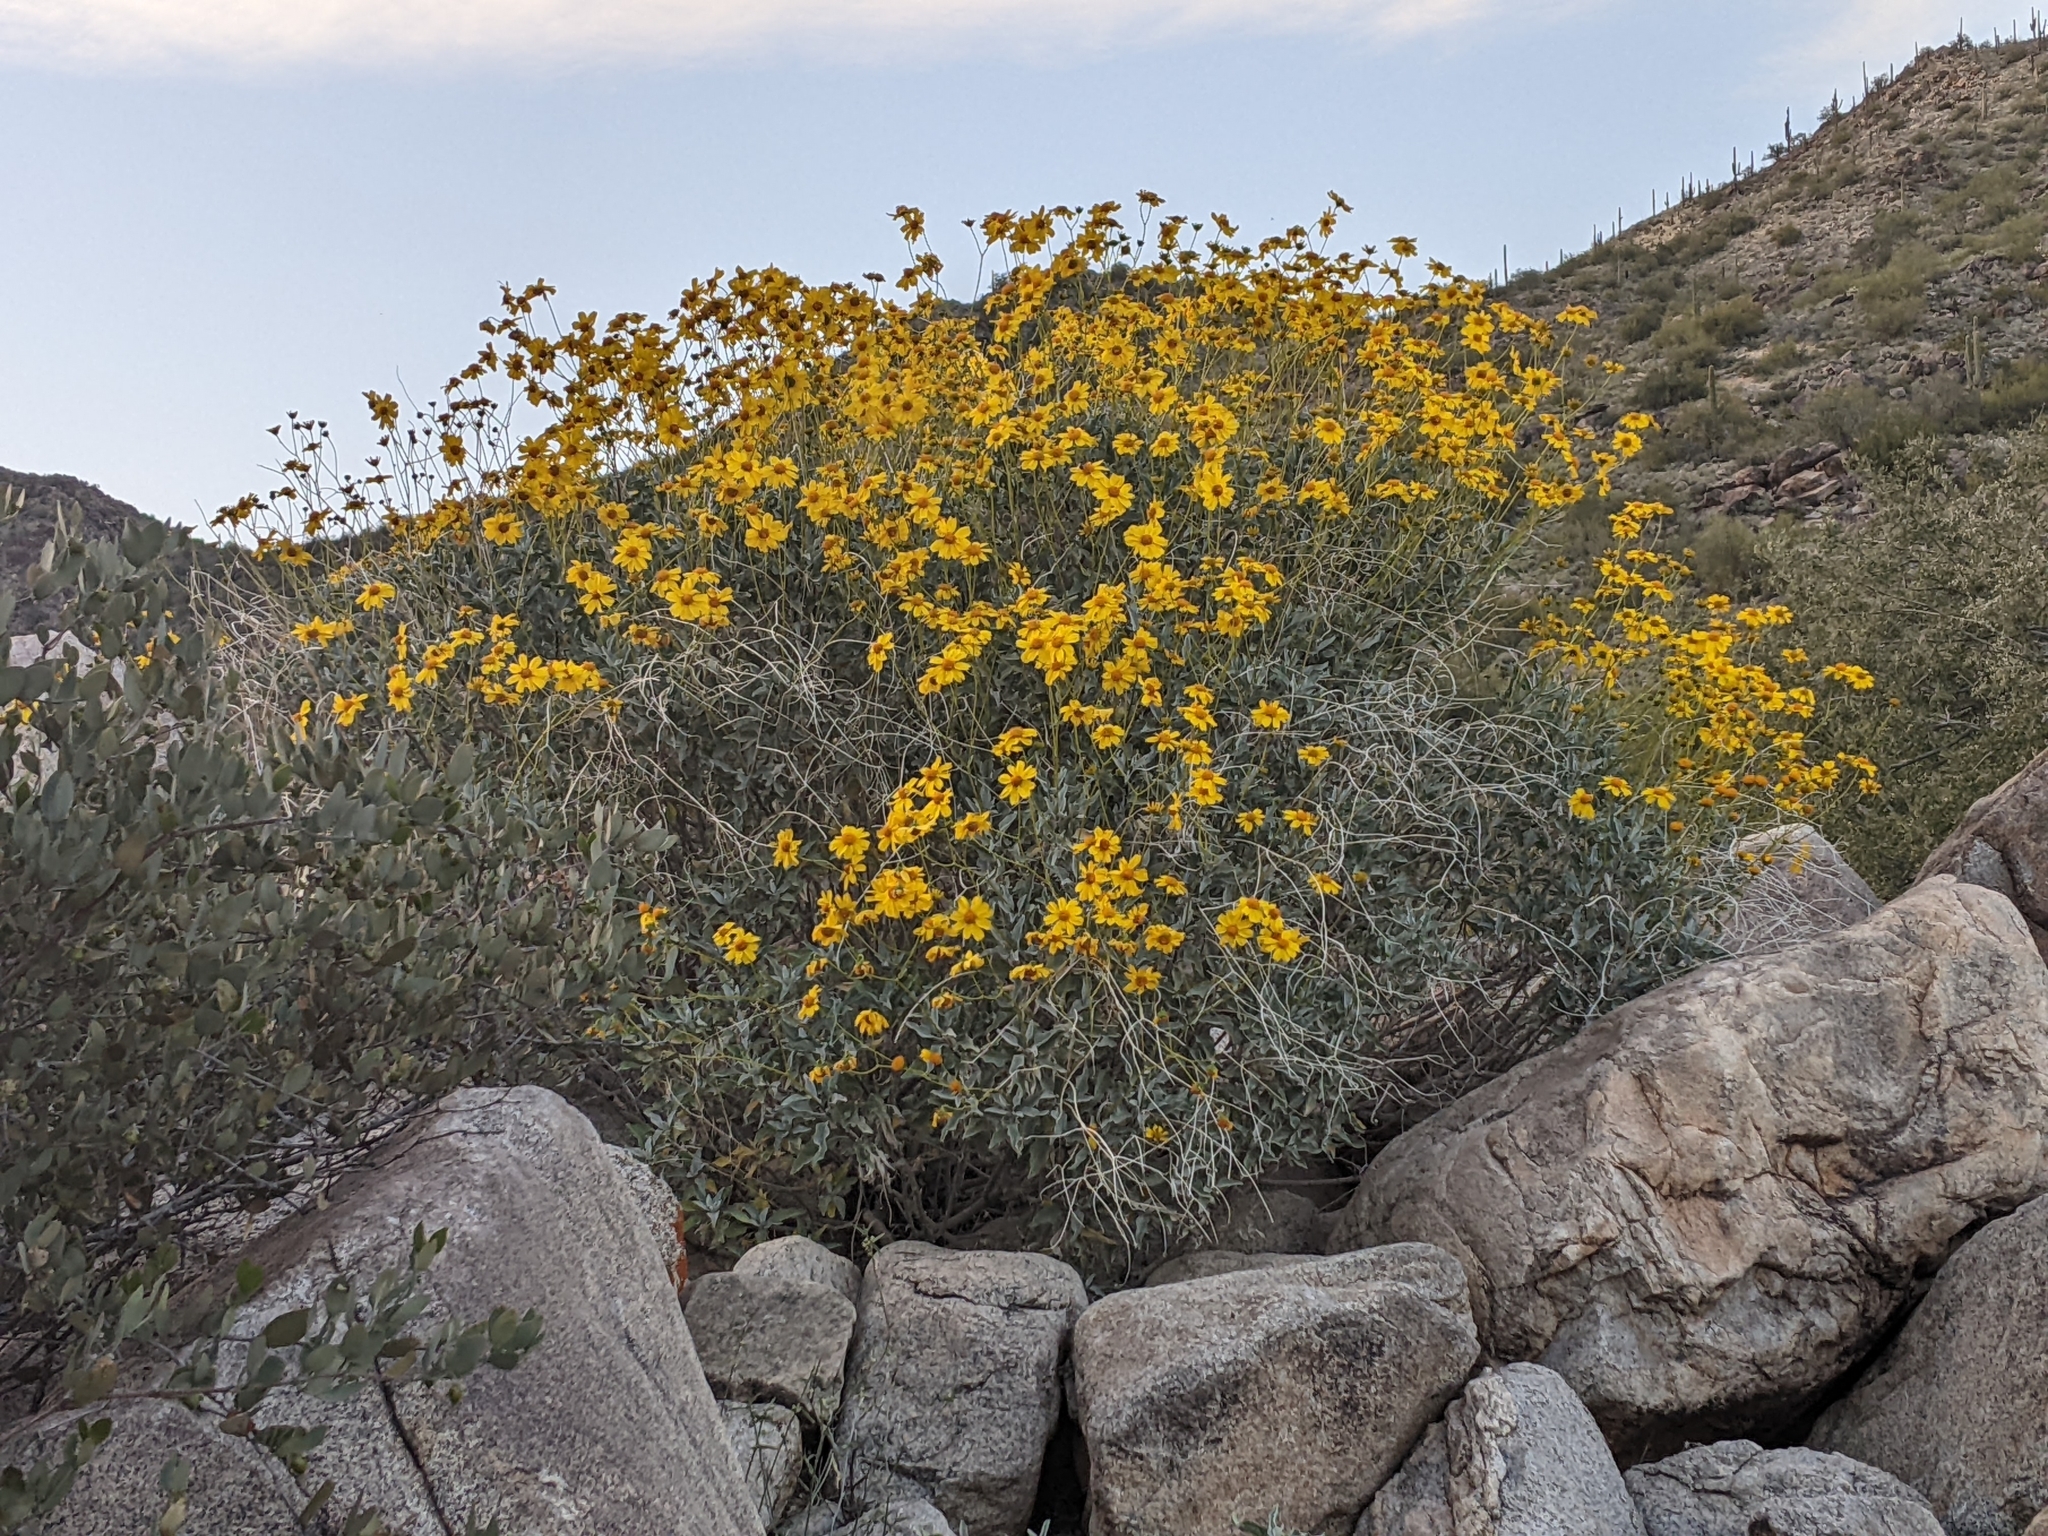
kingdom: Plantae
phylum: Tracheophyta
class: Magnoliopsida
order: Asterales
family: Asteraceae
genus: Encelia
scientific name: Encelia farinosa
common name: Brittlebush
